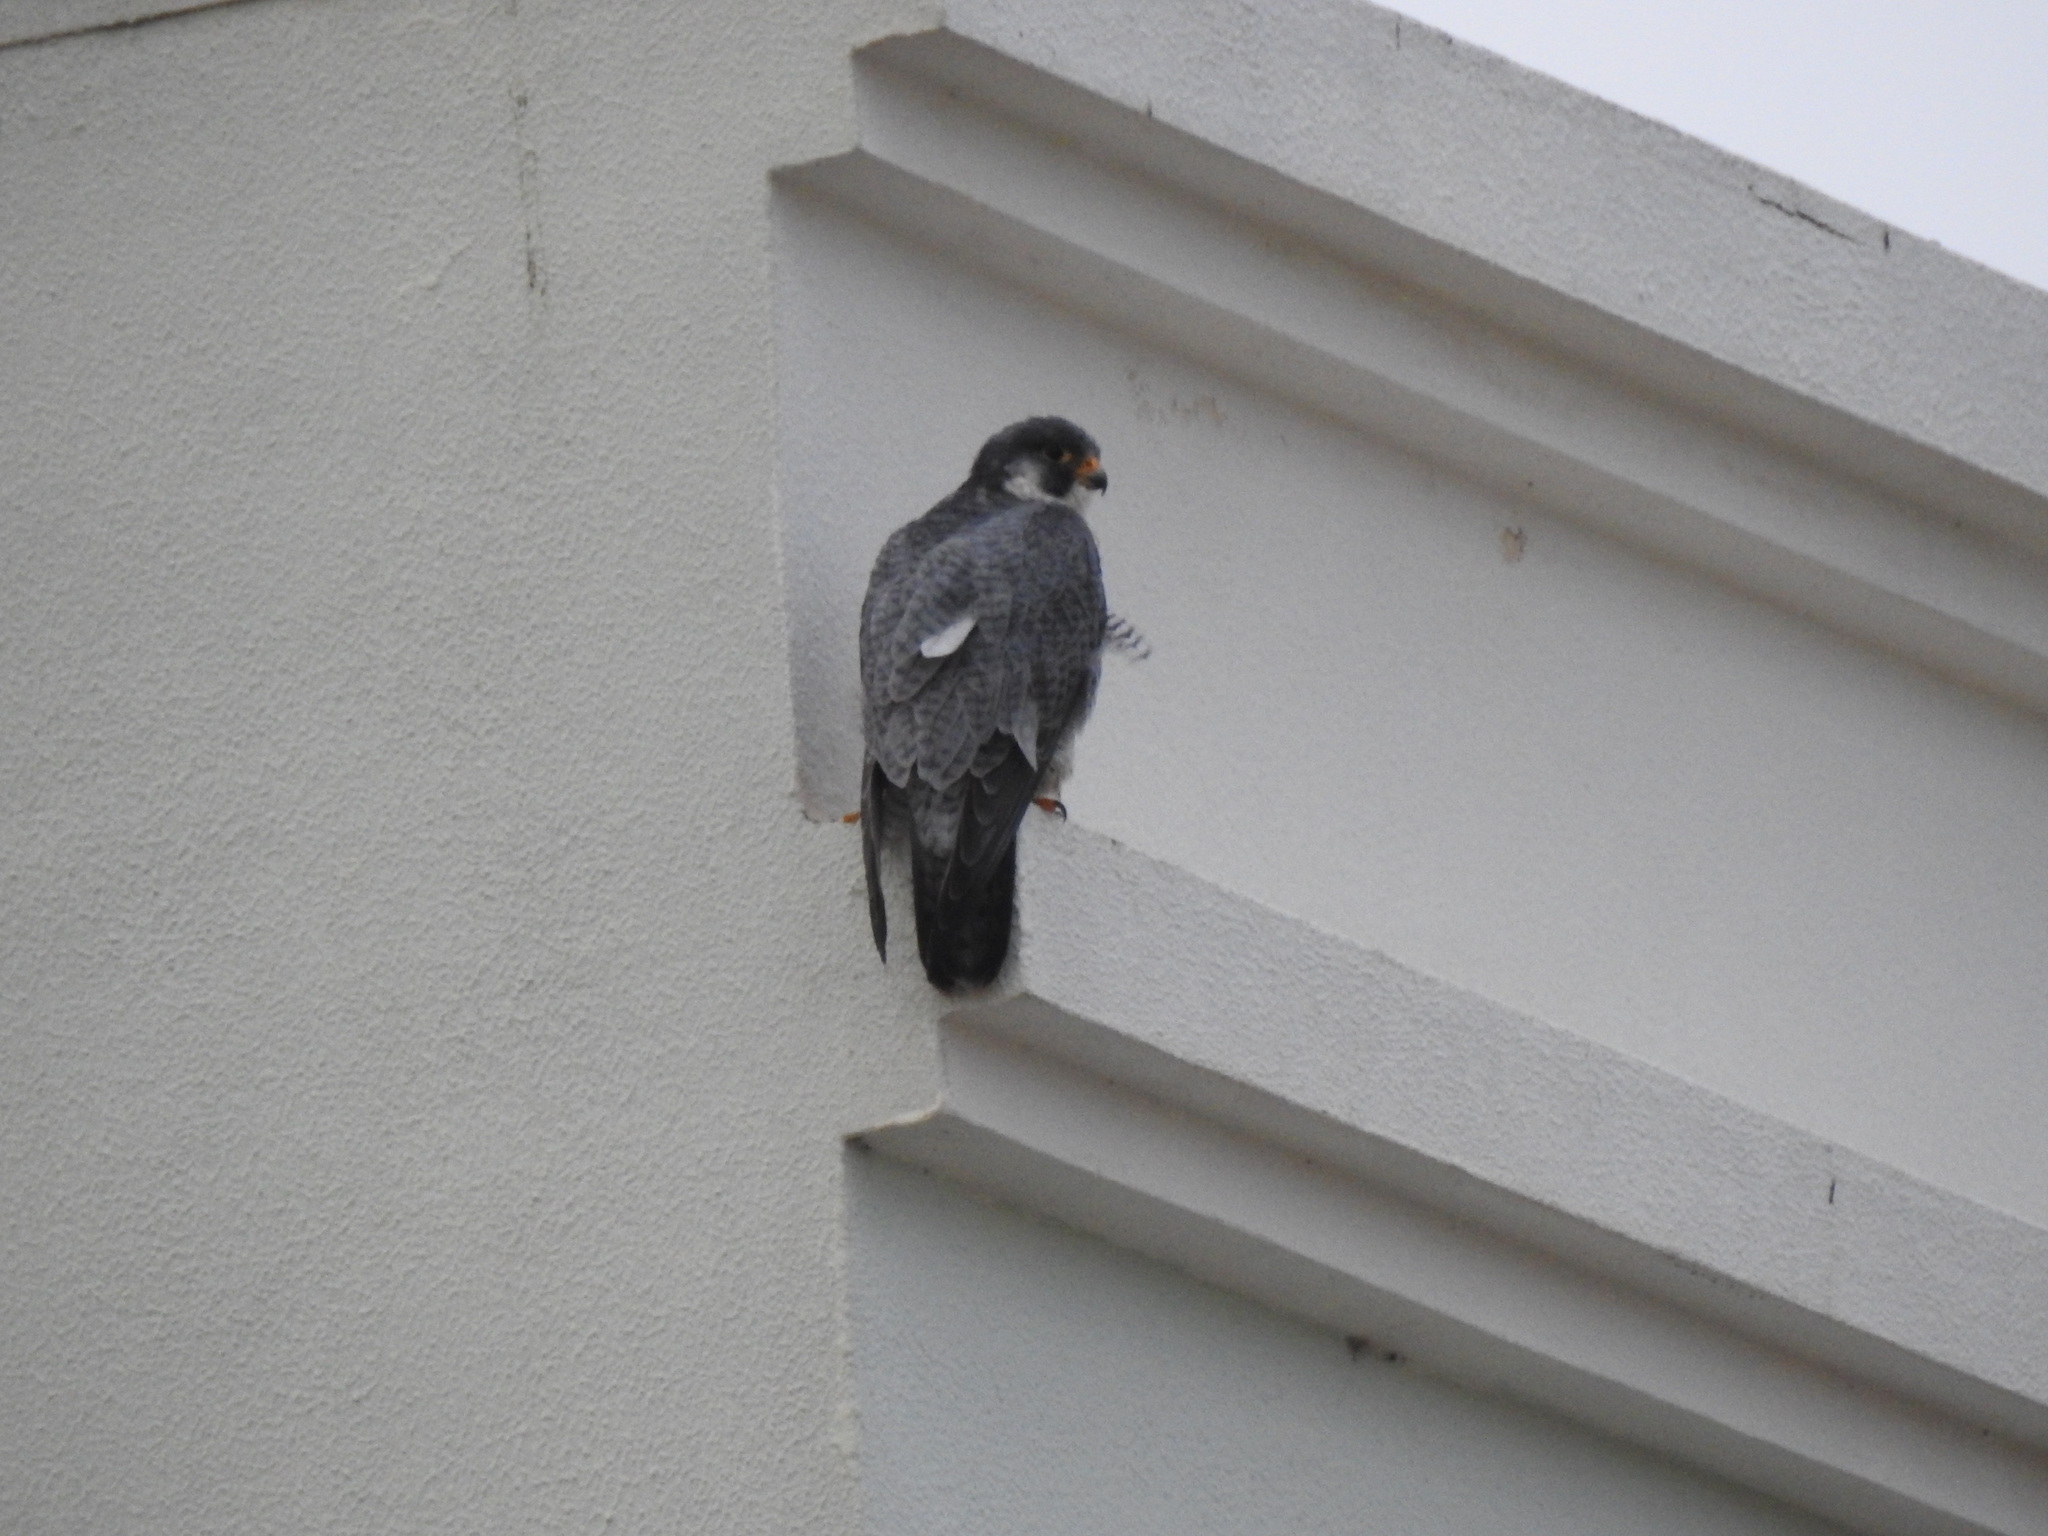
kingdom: Animalia
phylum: Chordata
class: Aves
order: Falconiformes
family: Falconidae
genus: Falco
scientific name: Falco peregrinus
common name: Peregrine falcon
